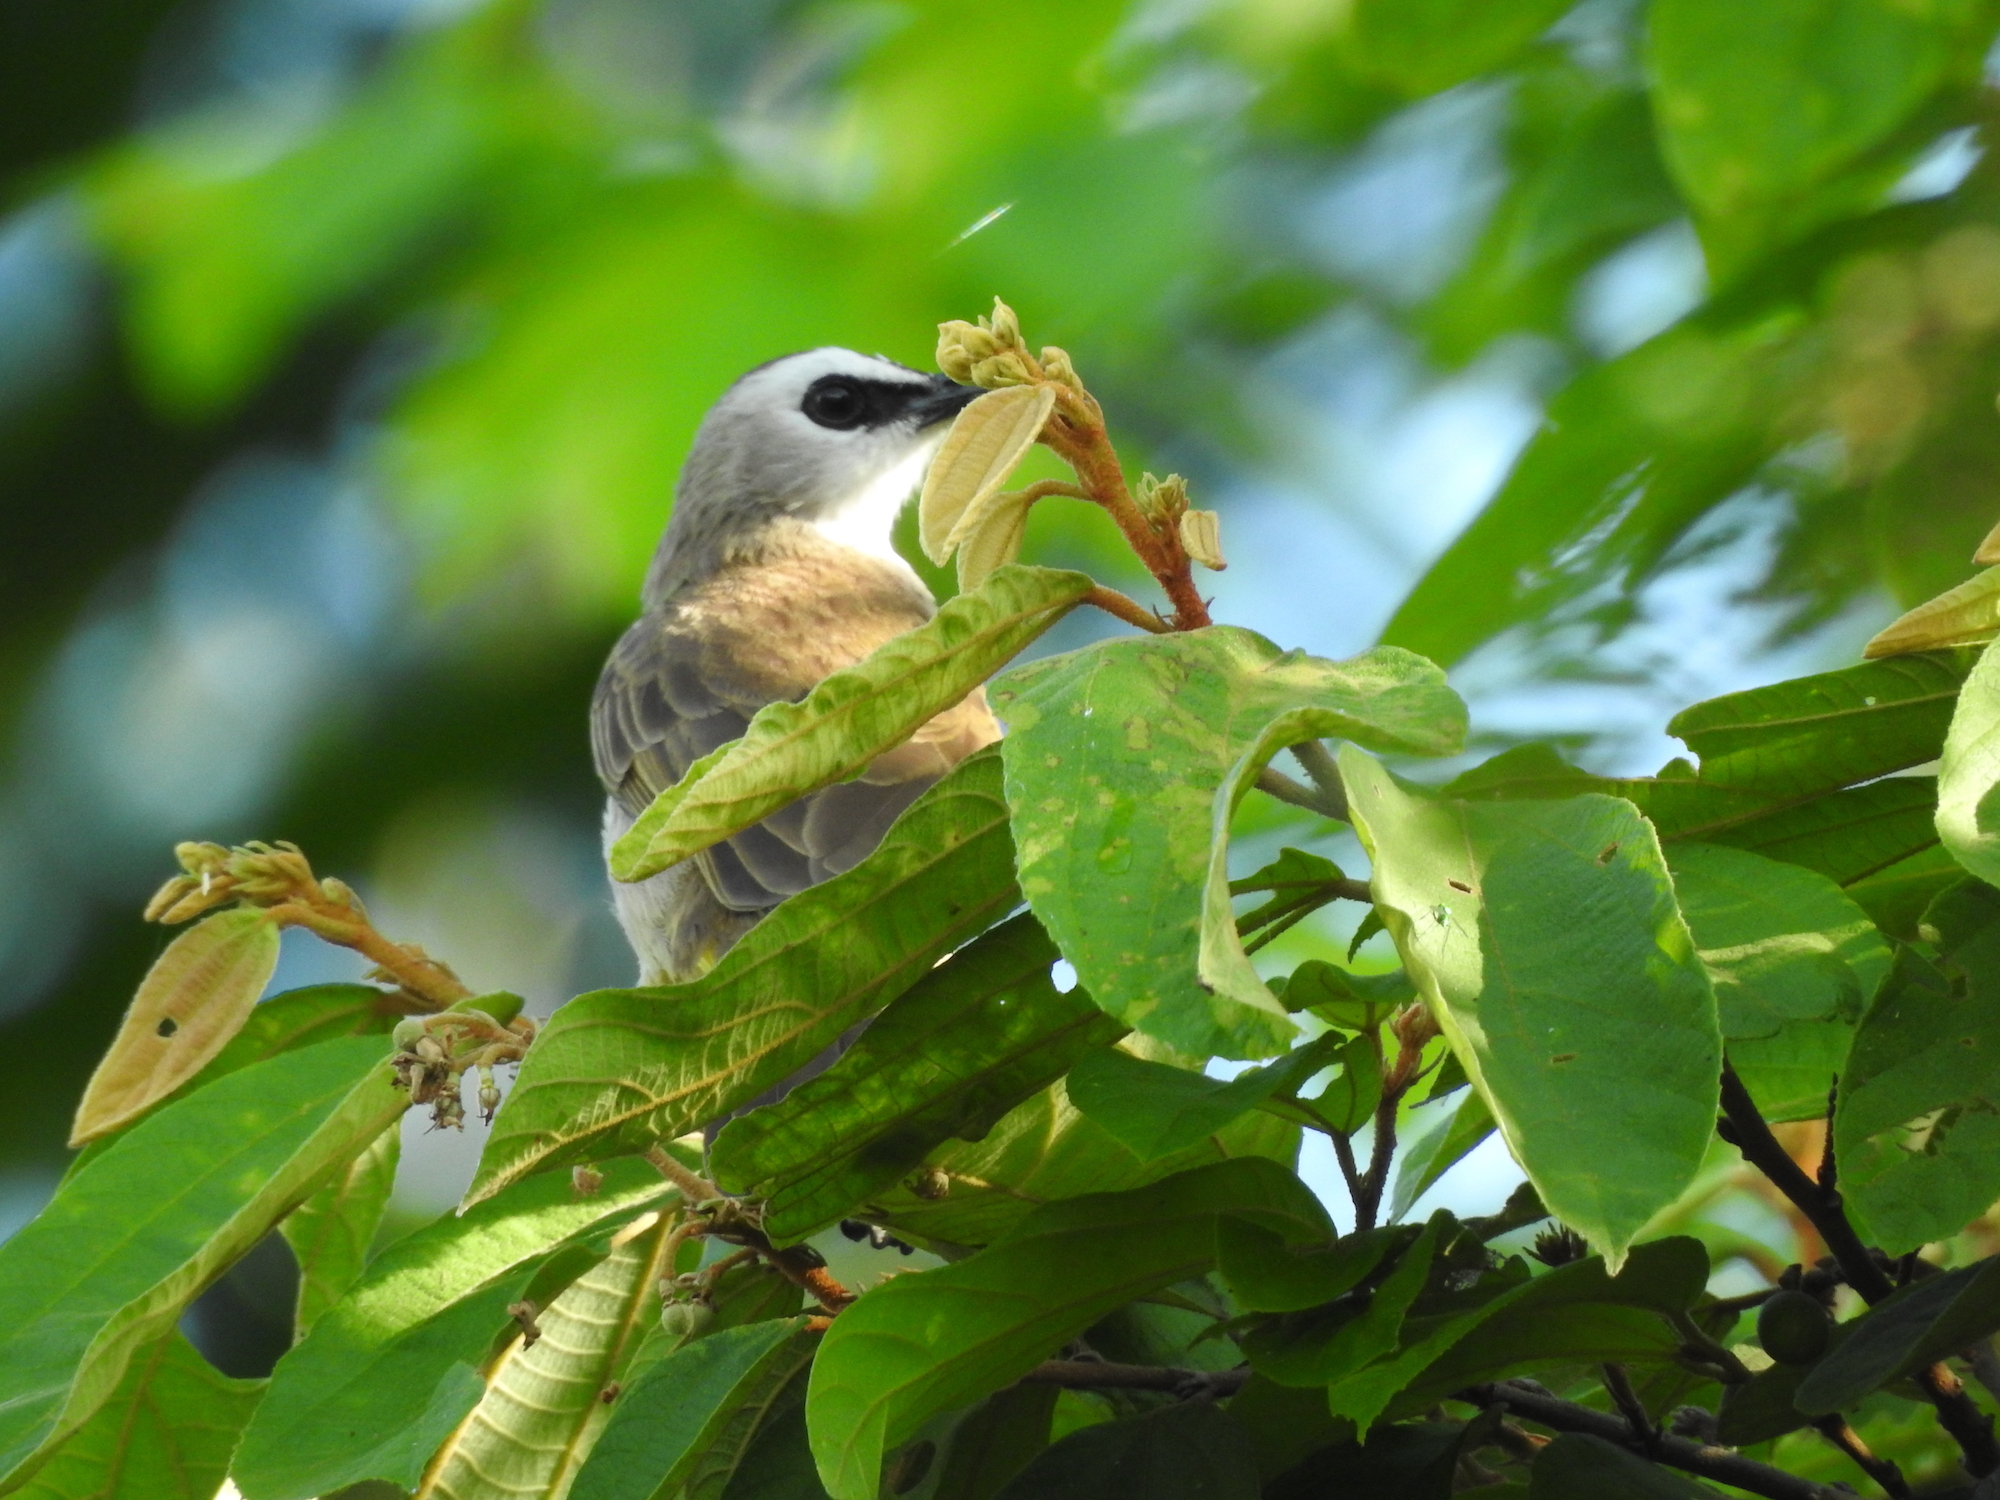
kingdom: Animalia
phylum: Chordata
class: Aves
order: Passeriformes
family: Pycnonotidae
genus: Pycnonotus
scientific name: Pycnonotus goiavier
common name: Yellow-vented bulbul
